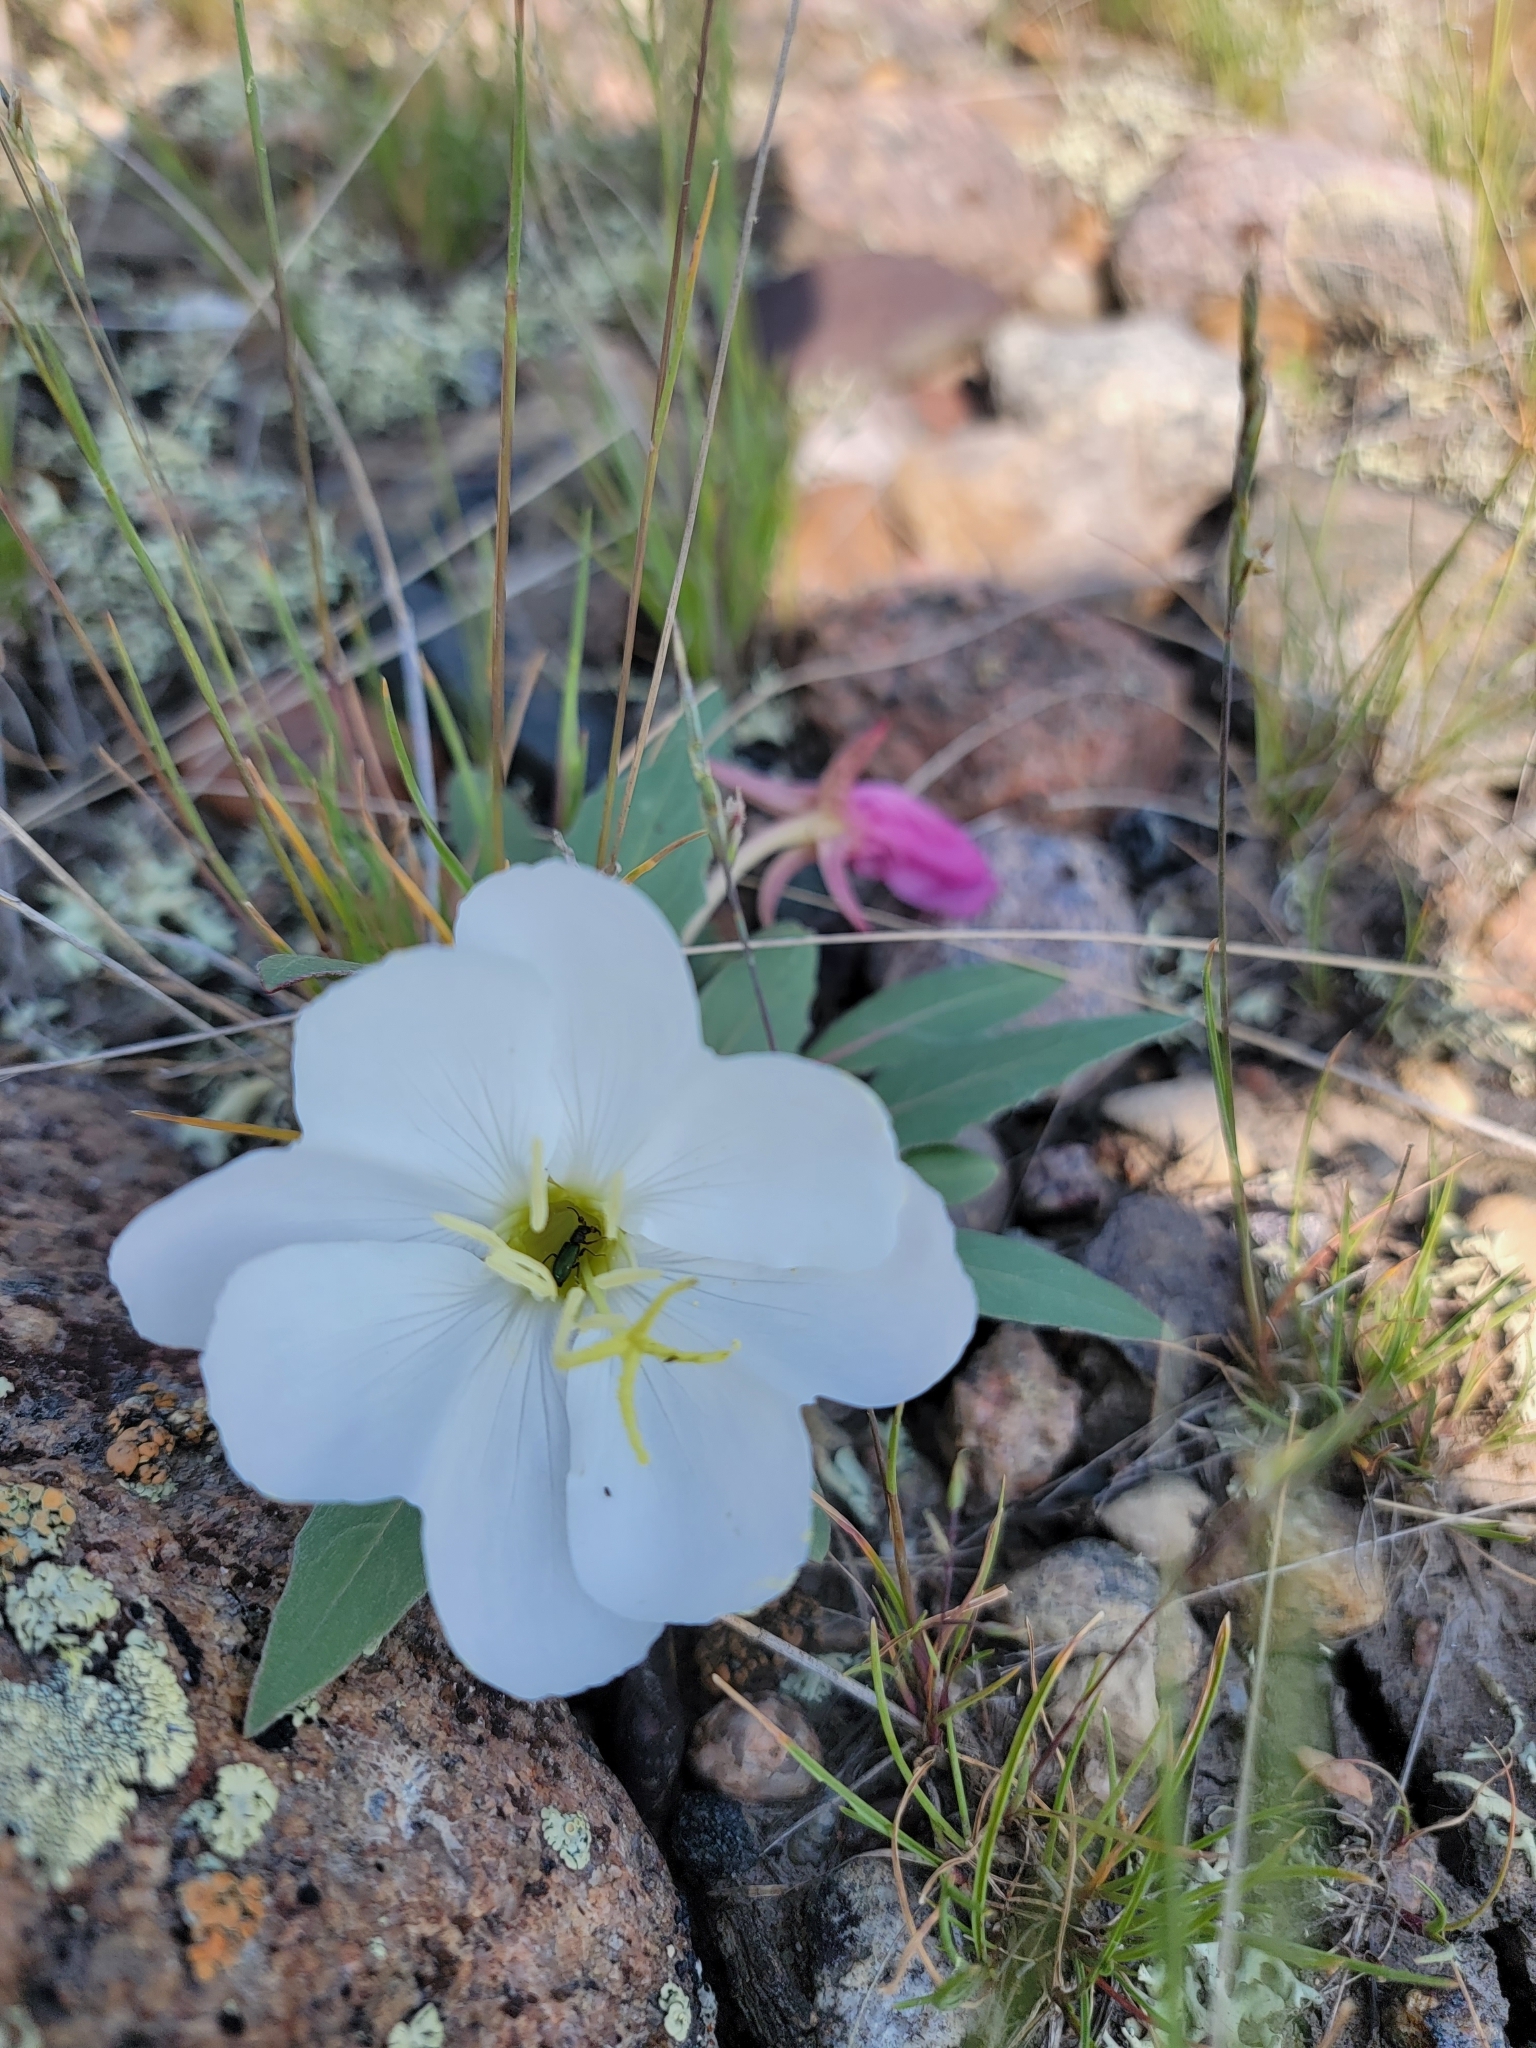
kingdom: Plantae
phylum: Tracheophyta
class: Magnoliopsida
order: Myrtales
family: Onagraceae
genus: Oenothera
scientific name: Oenothera cespitosa
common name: Tufted evening-primrose
